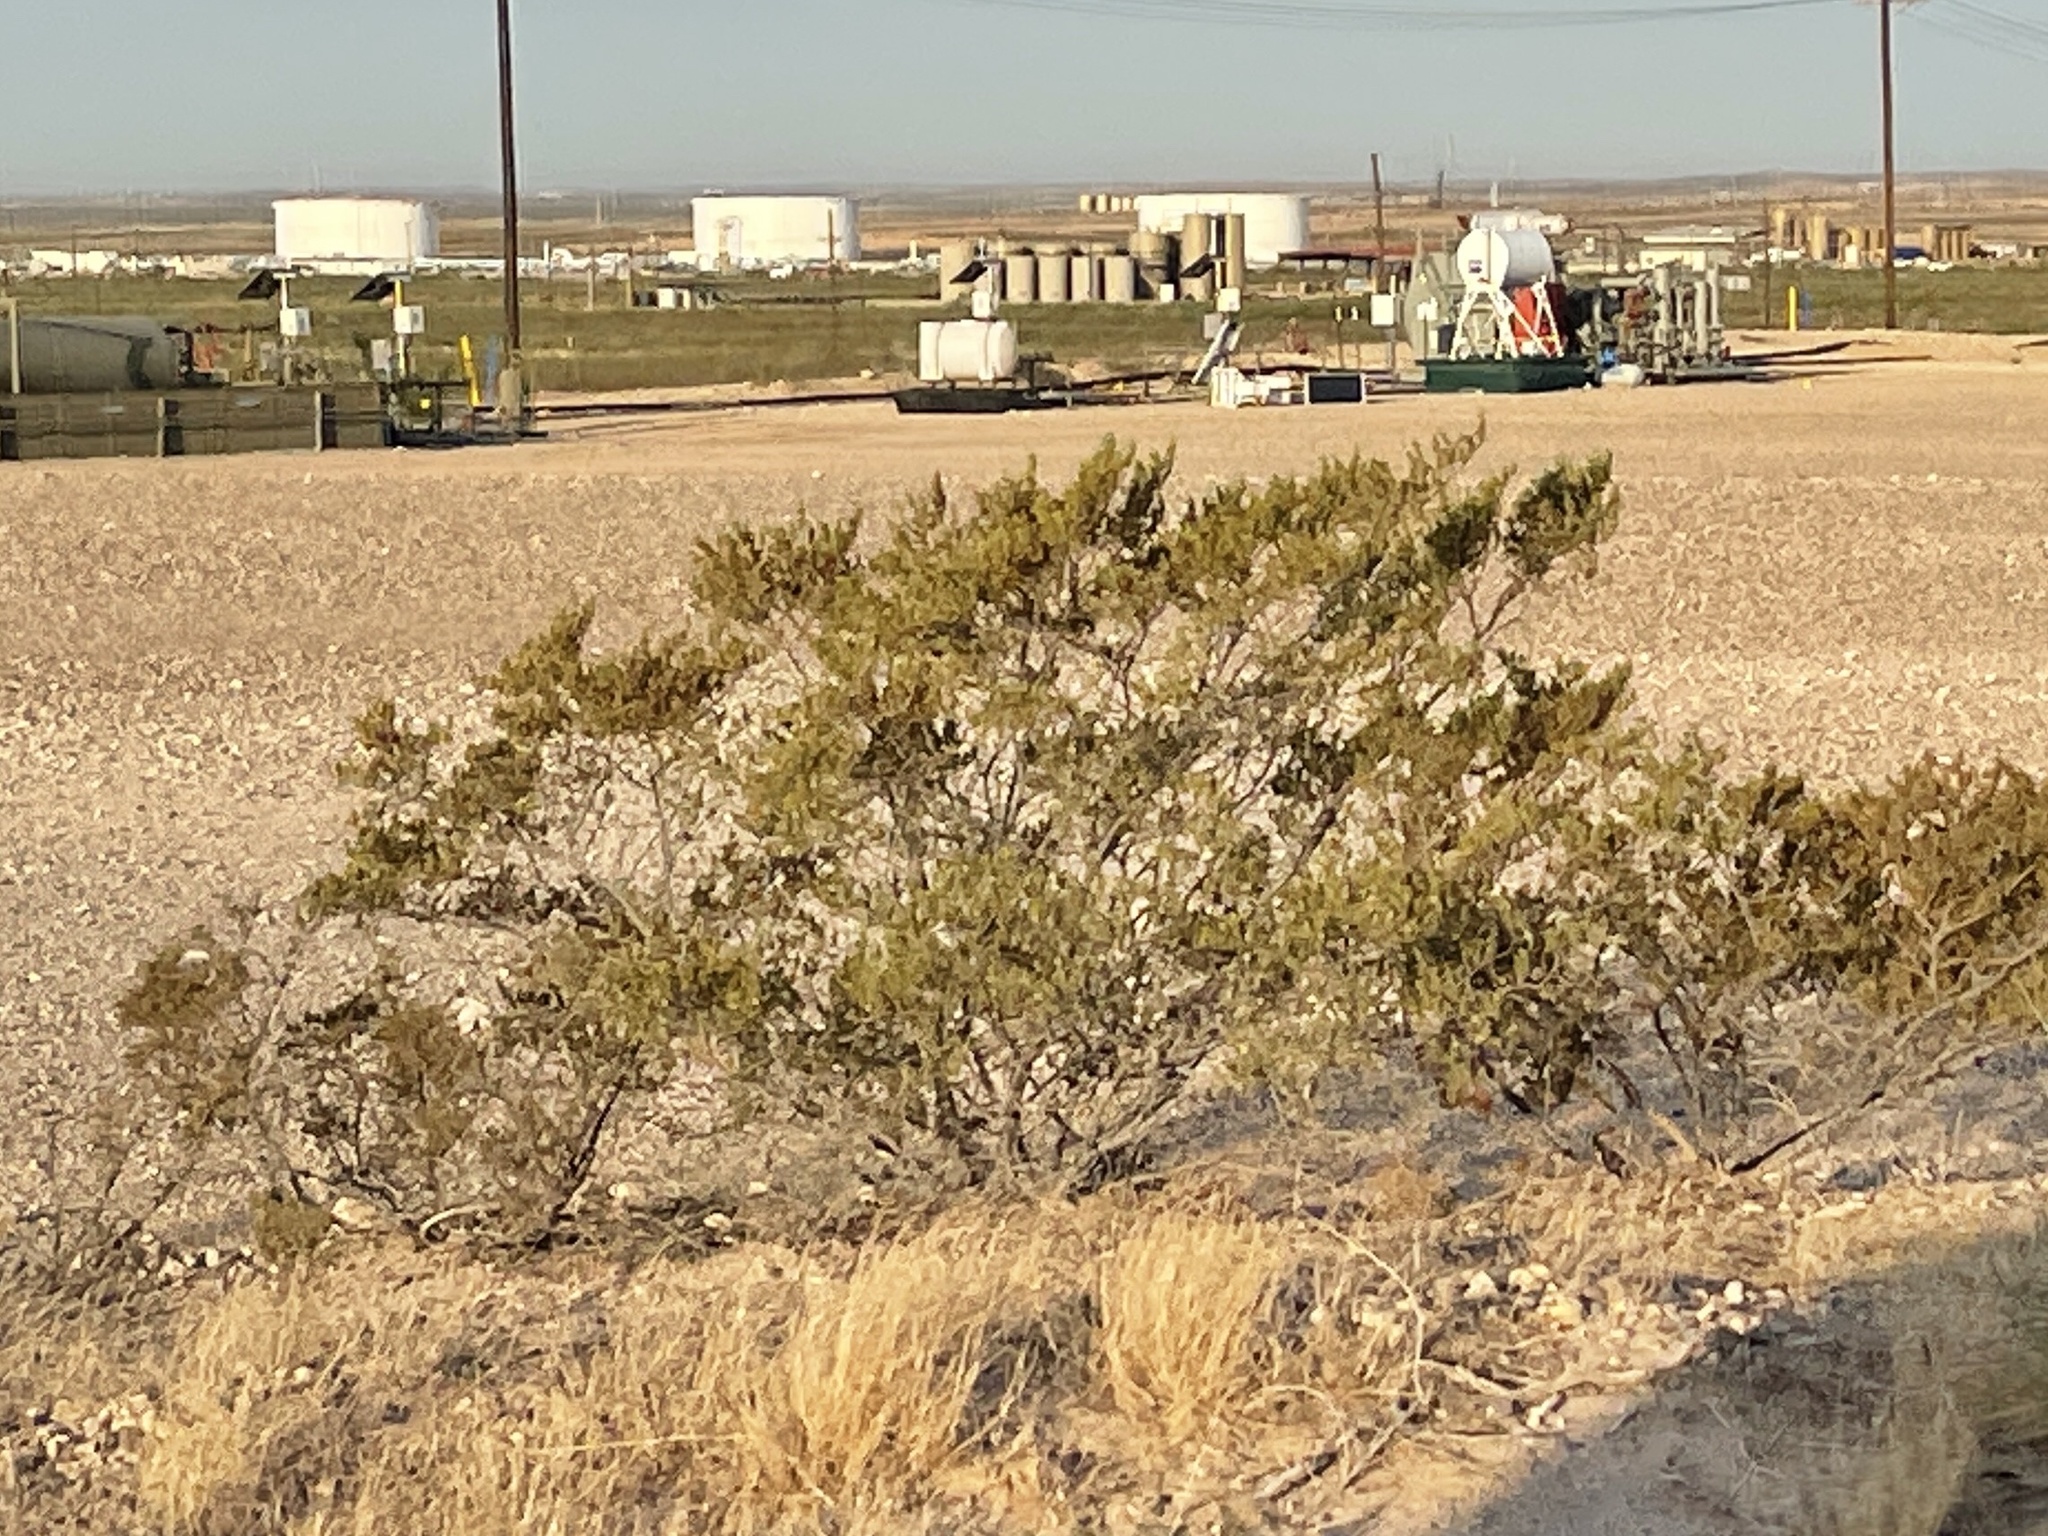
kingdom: Plantae
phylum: Tracheophyta
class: Magnoliopsida
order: Zygophyllales
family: Zygophyllaceae
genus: Larrea
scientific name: Larrea tridentata
